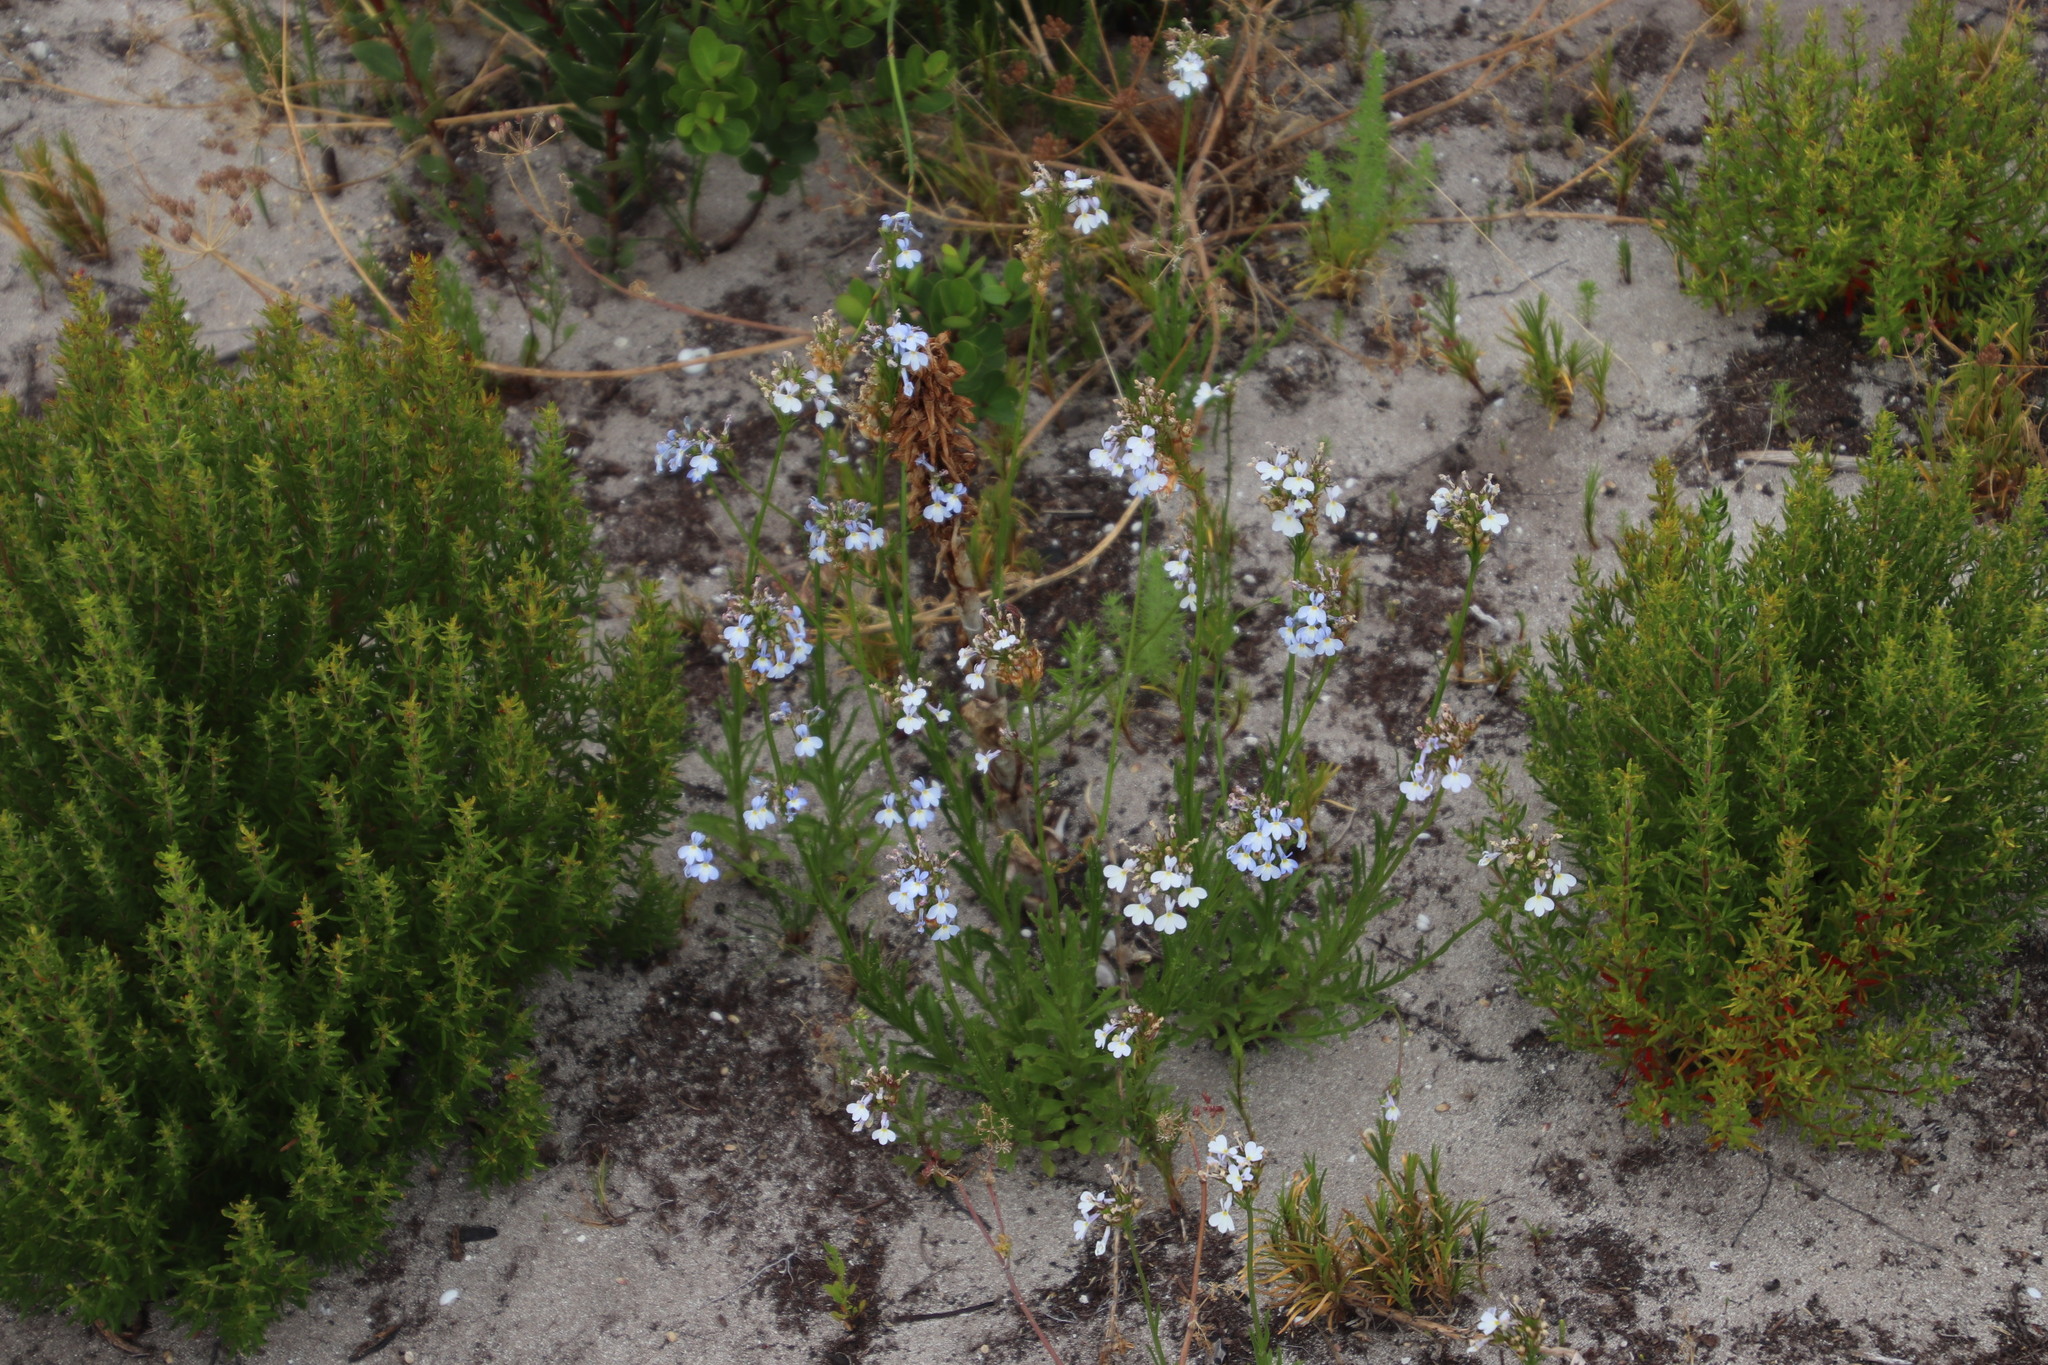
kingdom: Plantae
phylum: Tracheophyta
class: Magnoliopsida
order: Asterales
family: Campanulaceae
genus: Lobelia
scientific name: Lobelia comosa
